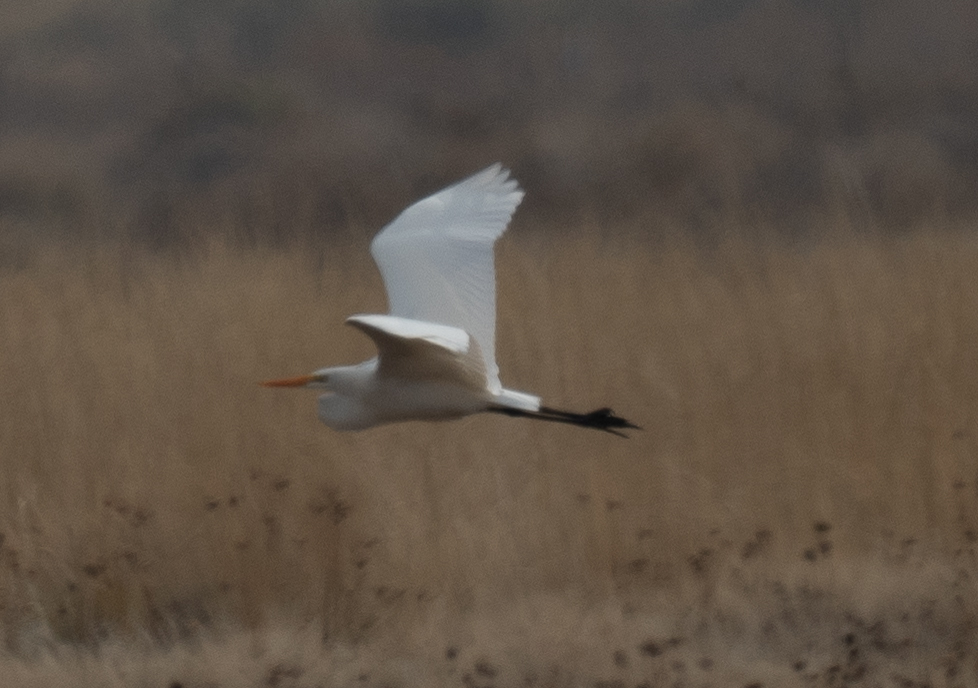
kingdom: Animalia
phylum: Chordata
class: Aves
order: Pelecaniformes
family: Ardeidae
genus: Ardea
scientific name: Ardea alba
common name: Great egret
